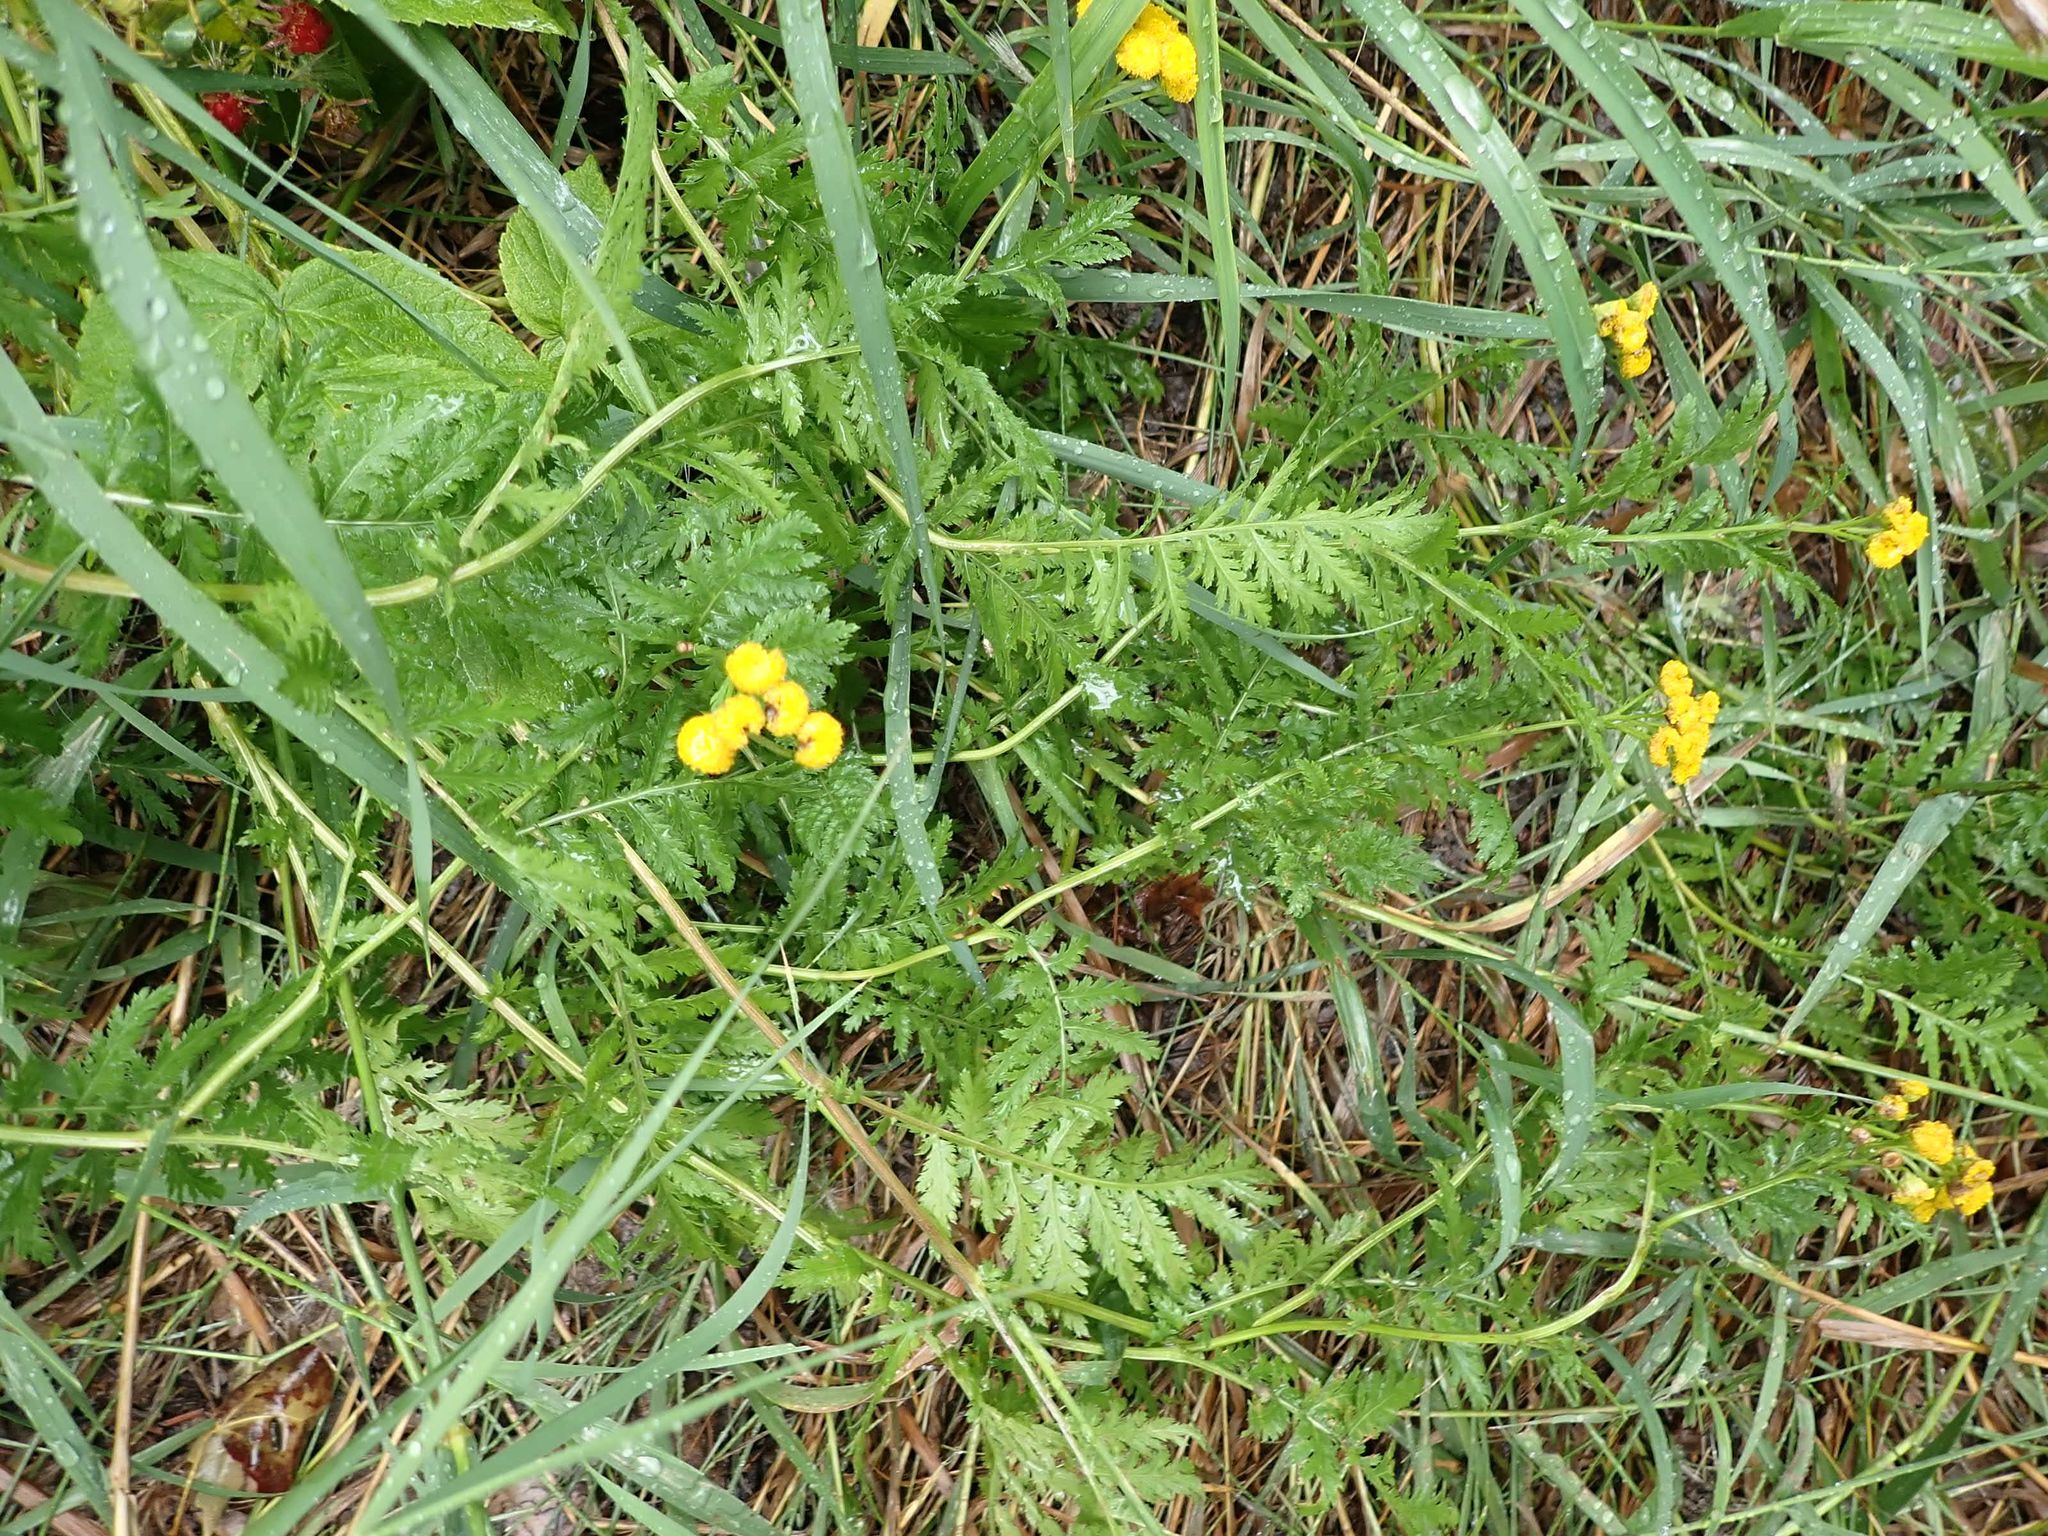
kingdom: Plantae
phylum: Tracheophyta
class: Magnoliopsida
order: Asterales
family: Asteraceae
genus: Tanacetum
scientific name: Tanacetum vulgare
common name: Common tansy
